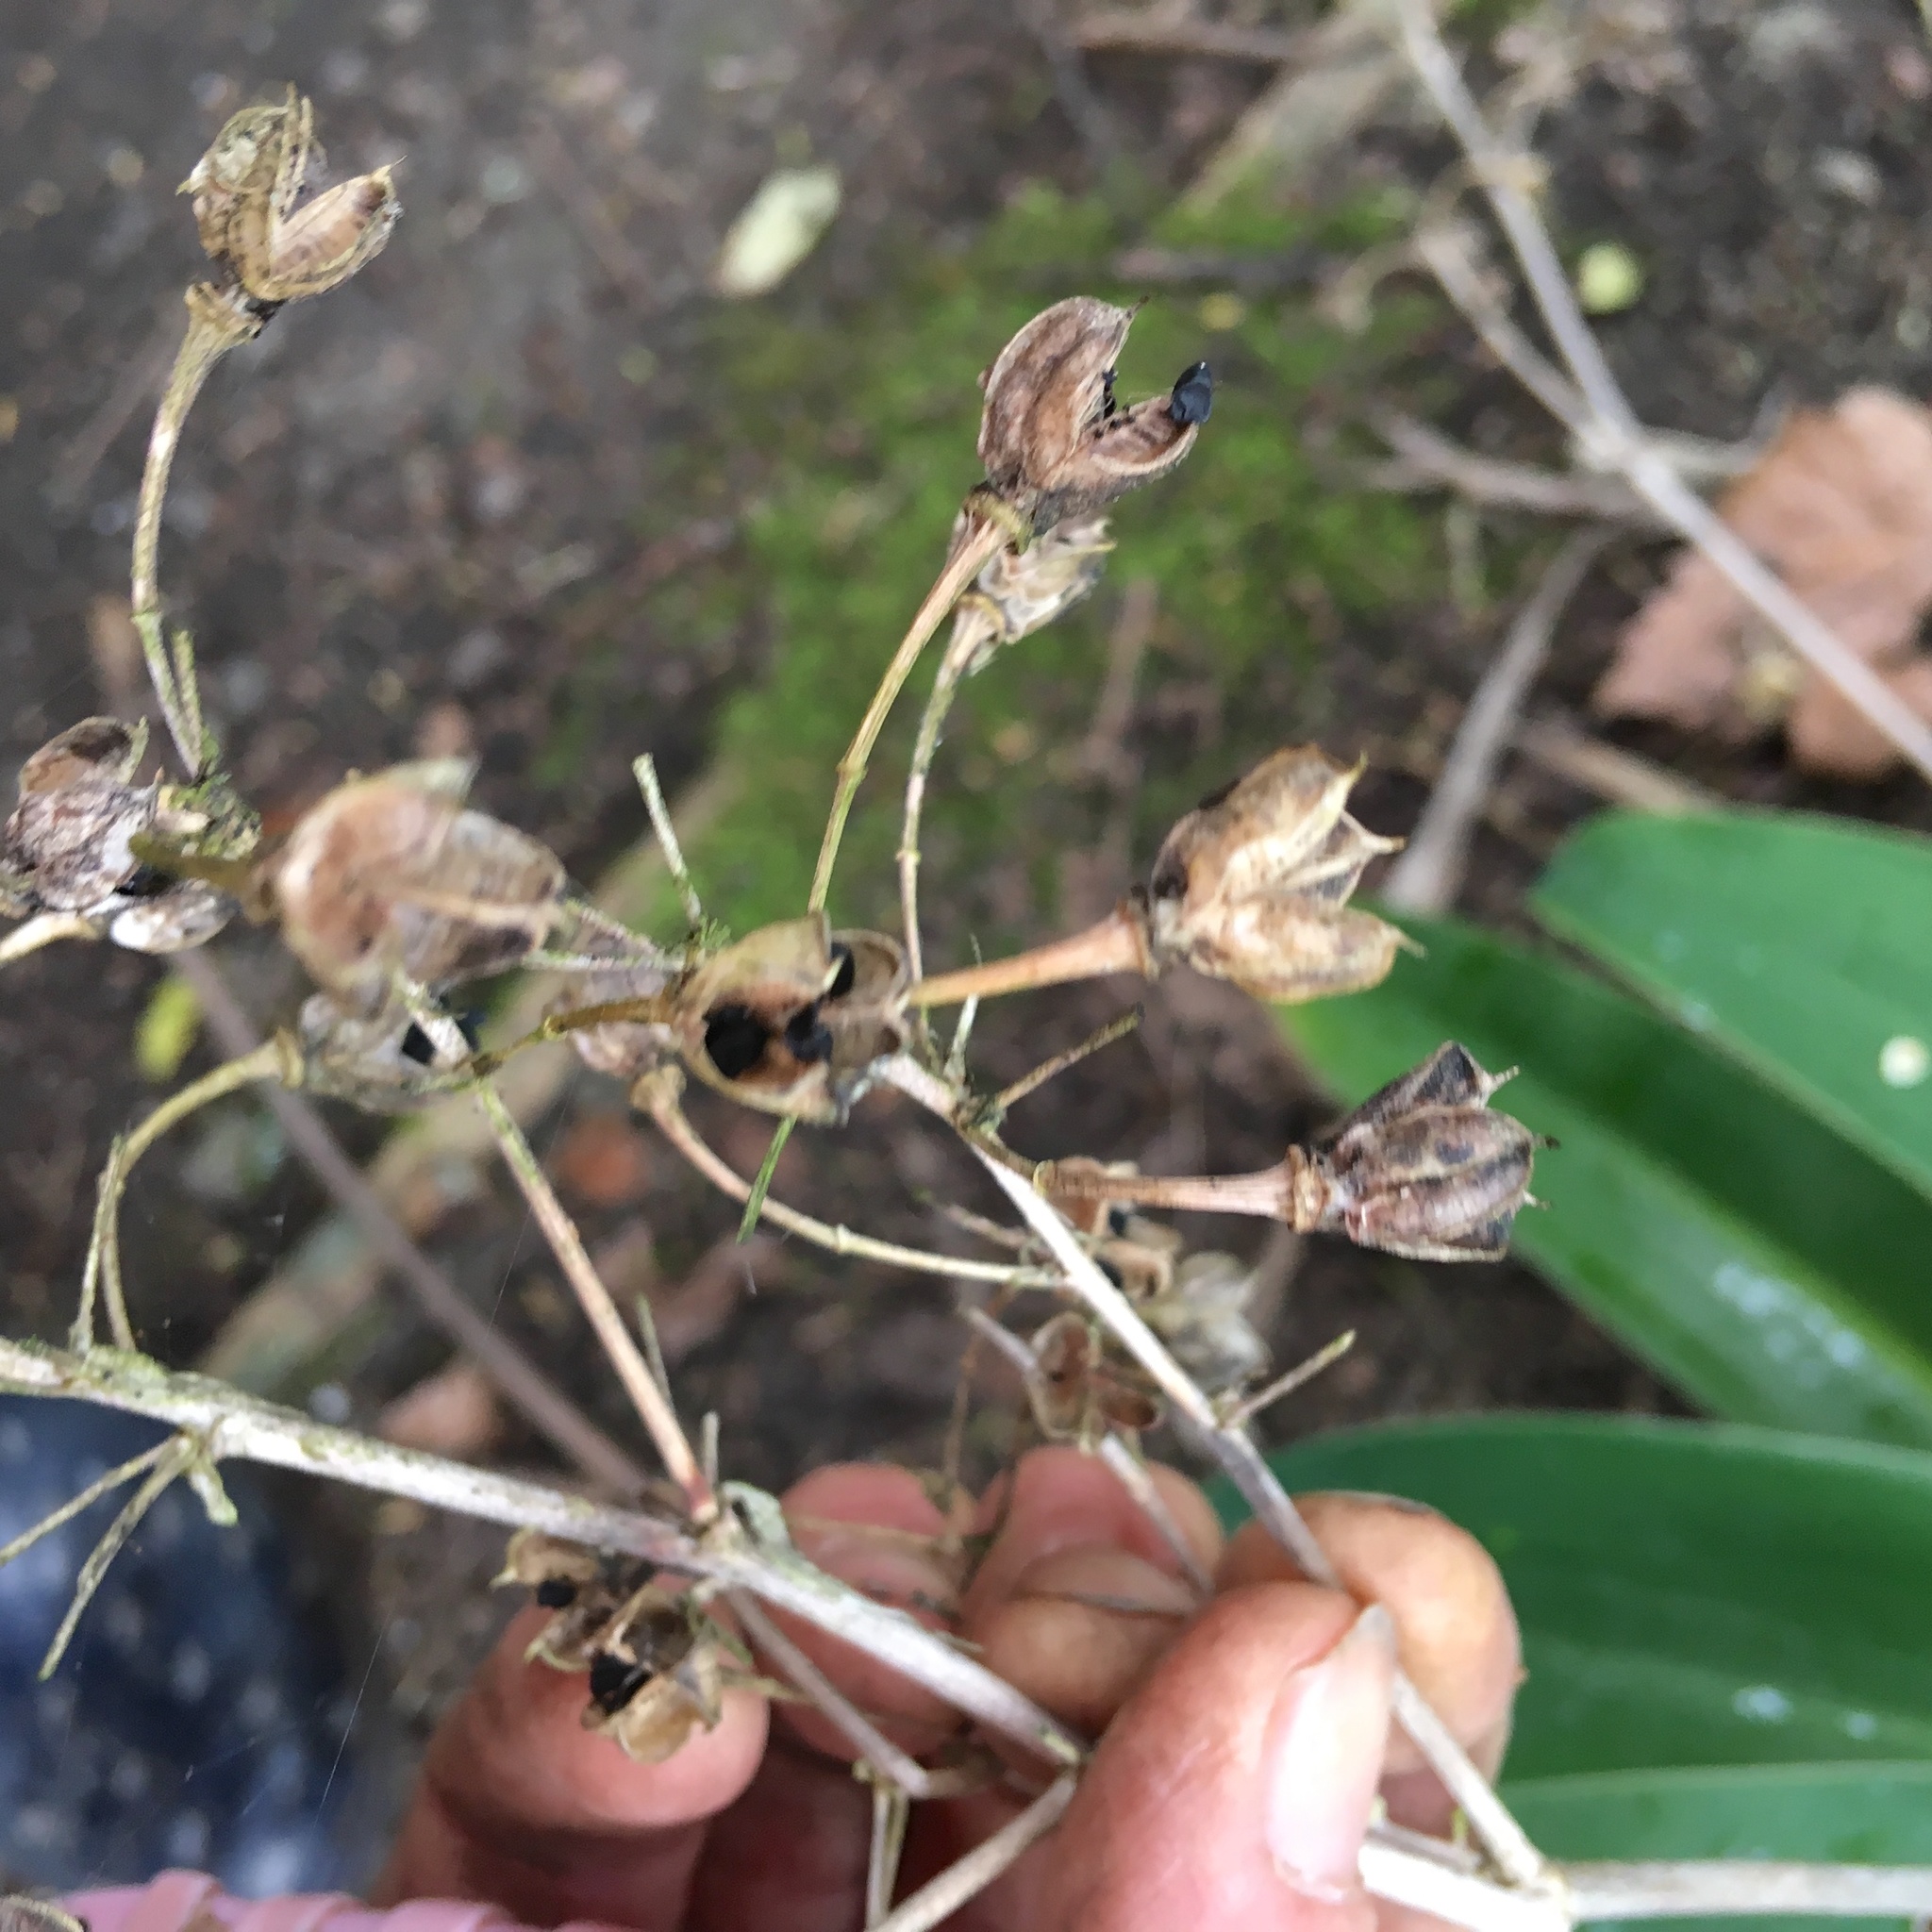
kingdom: Plantae
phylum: Tracheophyta
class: Liliopsida
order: Asparagales
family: Asparagaceae
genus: Arthropodium
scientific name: Arthropodium cirratum
